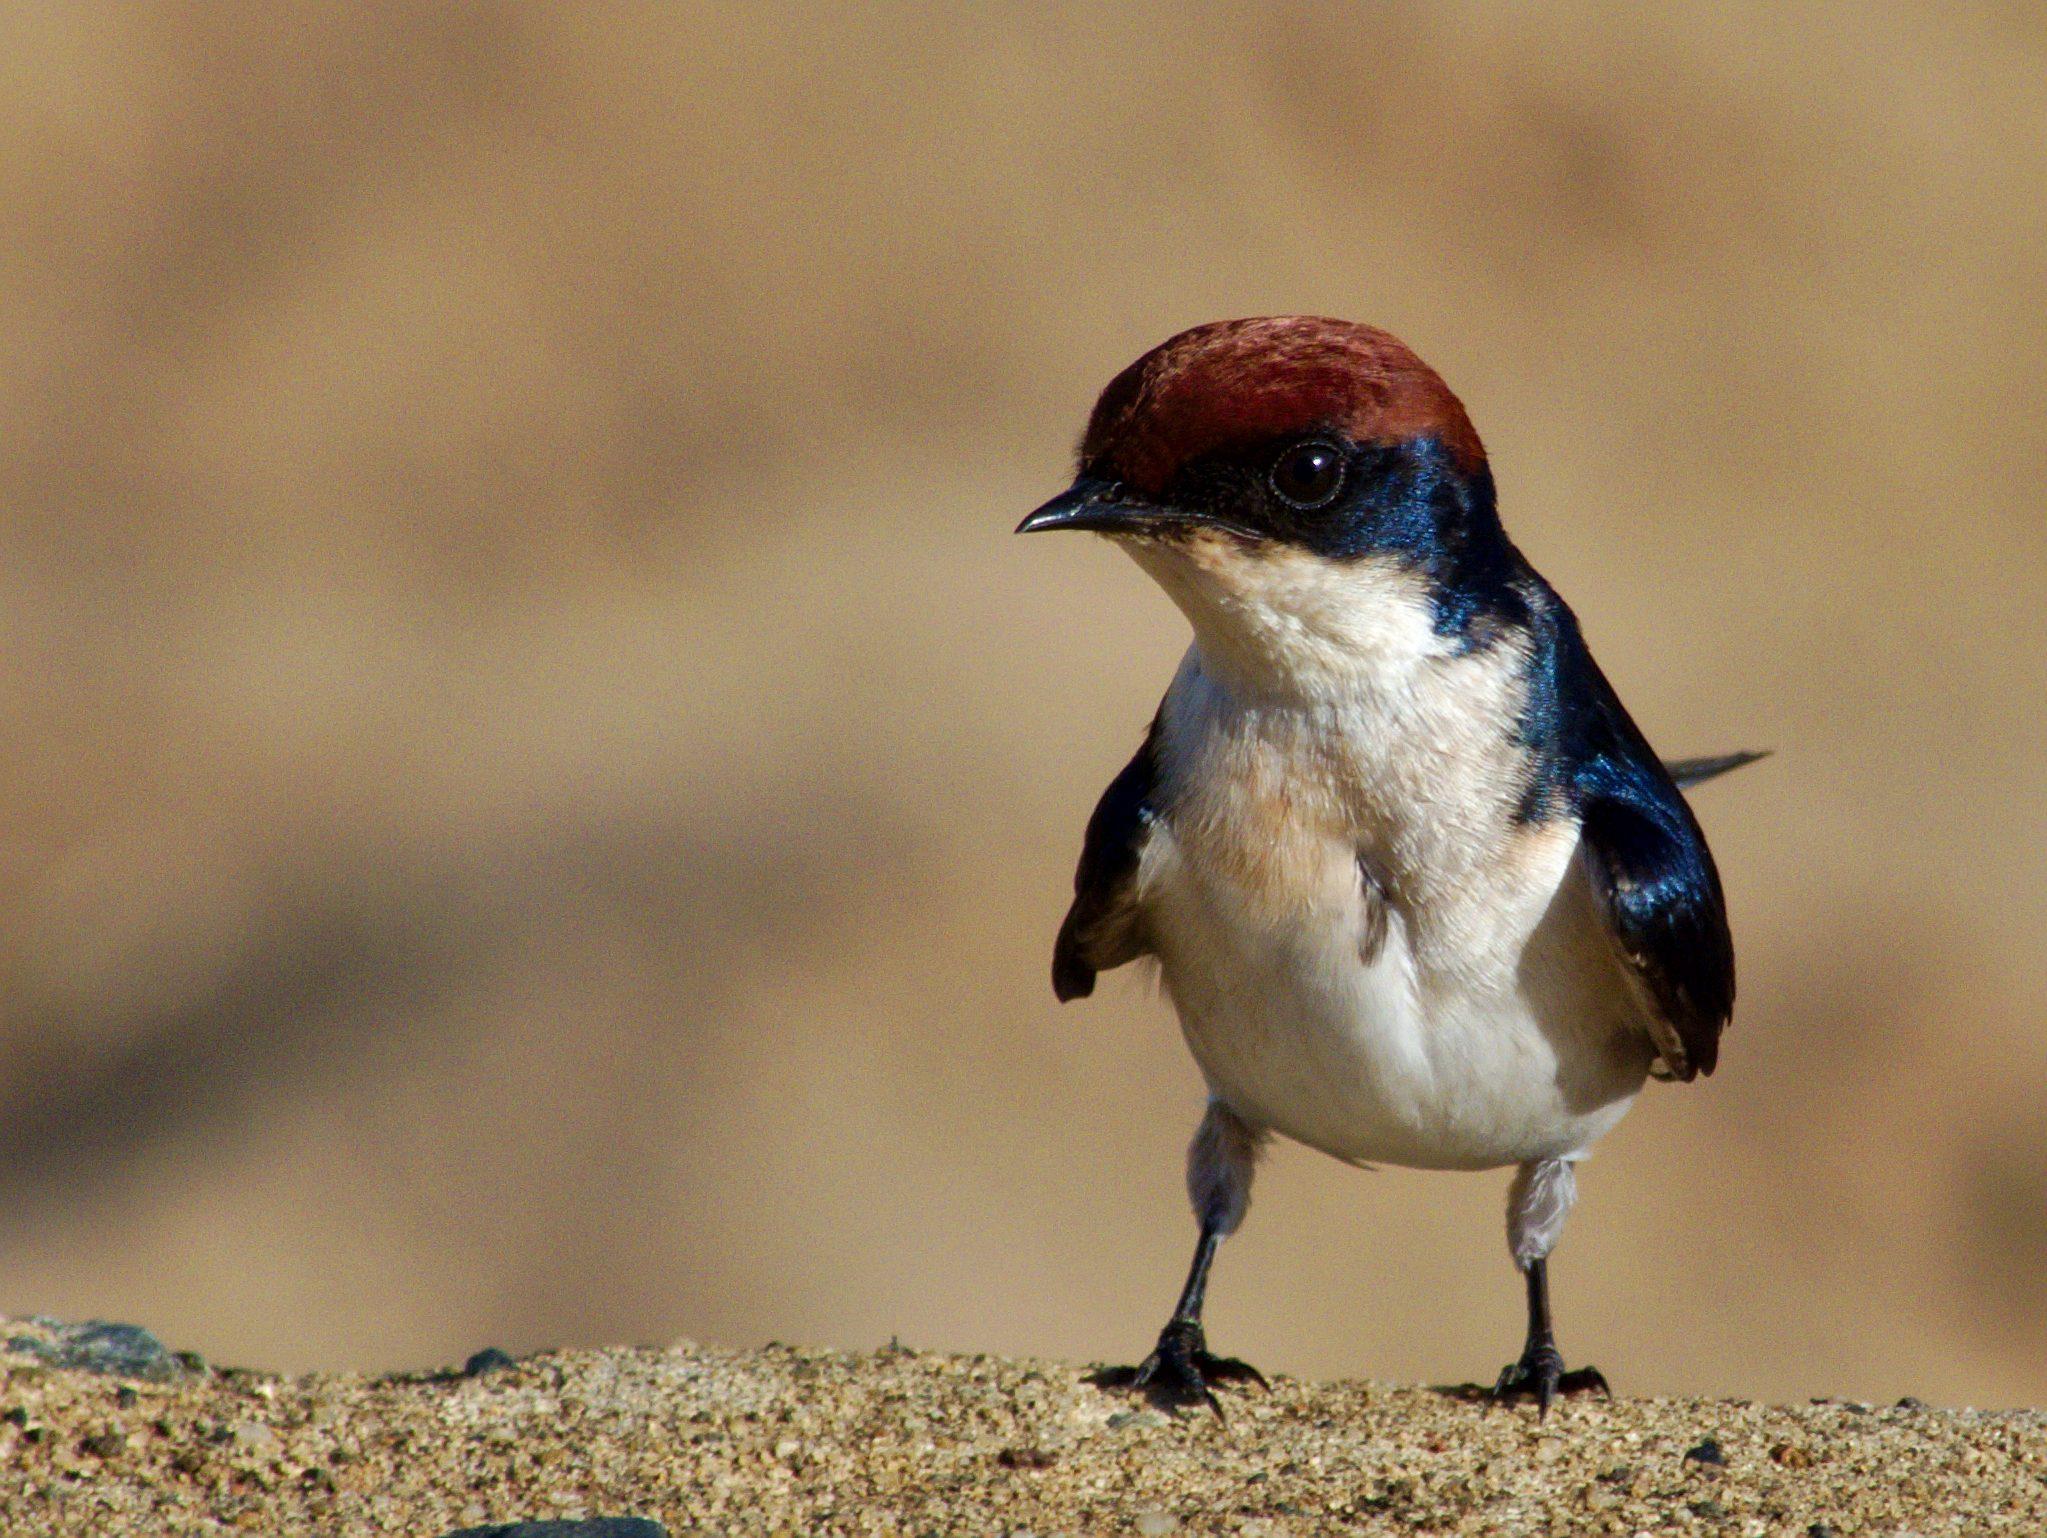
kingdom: Animalia
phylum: Chordata
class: Aves
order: Passeriformes
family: Hirundinidae
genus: Hirundo
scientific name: Hirundo smithii
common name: Wire-tailed swallow
